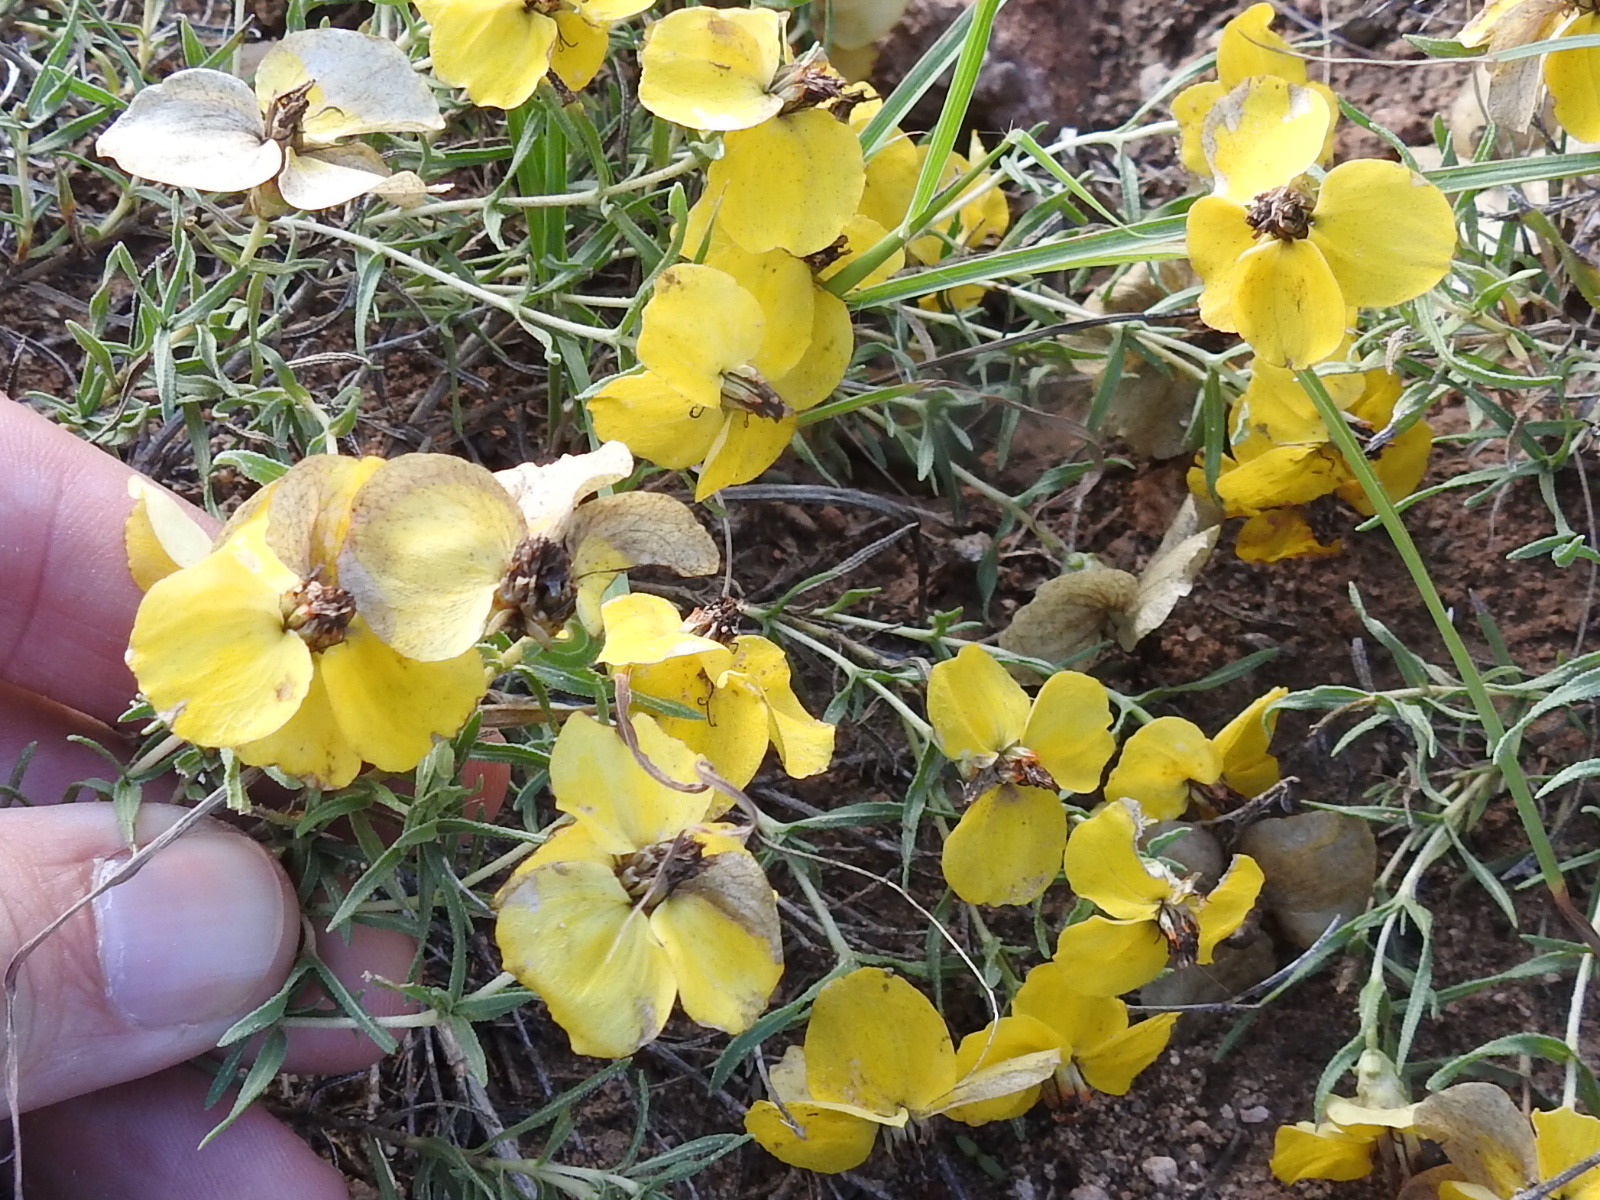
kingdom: Plantae
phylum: Tracheophyta
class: Magnoliopsida
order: Asterales
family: Asteraceae
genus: Zinnia
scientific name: Zinnia grandiflora
